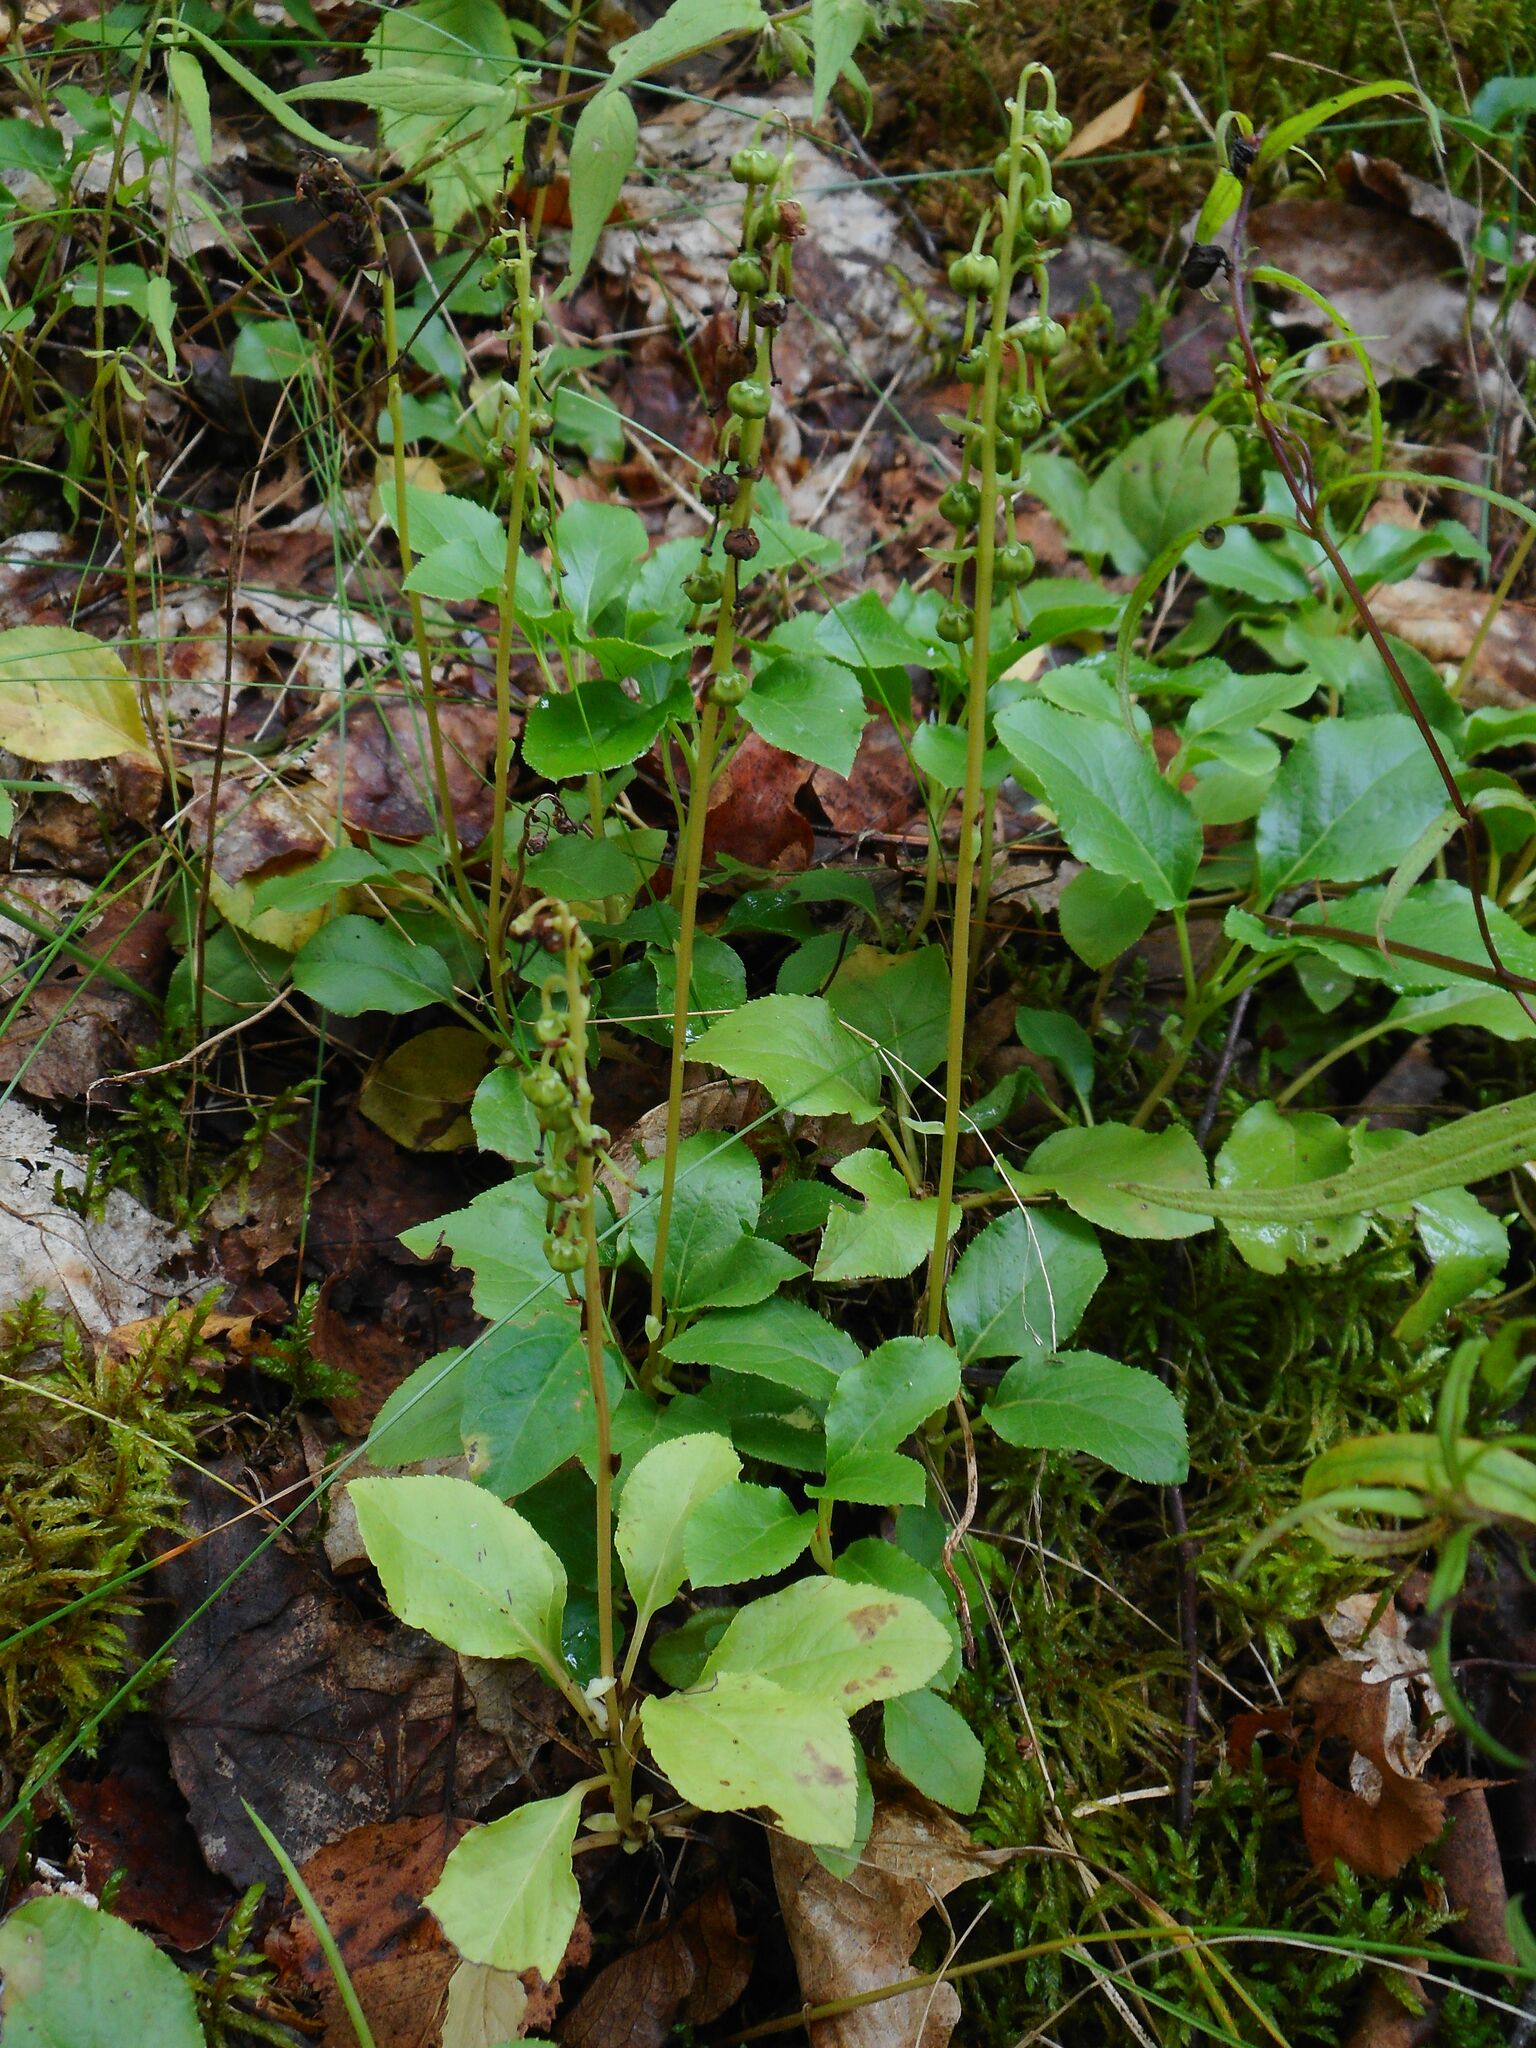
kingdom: Plantae
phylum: Tracheophyta
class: Magnoliopsida
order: Ericales
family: Ericaceae
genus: Orthilia
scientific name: Orthilia secunda
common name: One-sided orthilia
